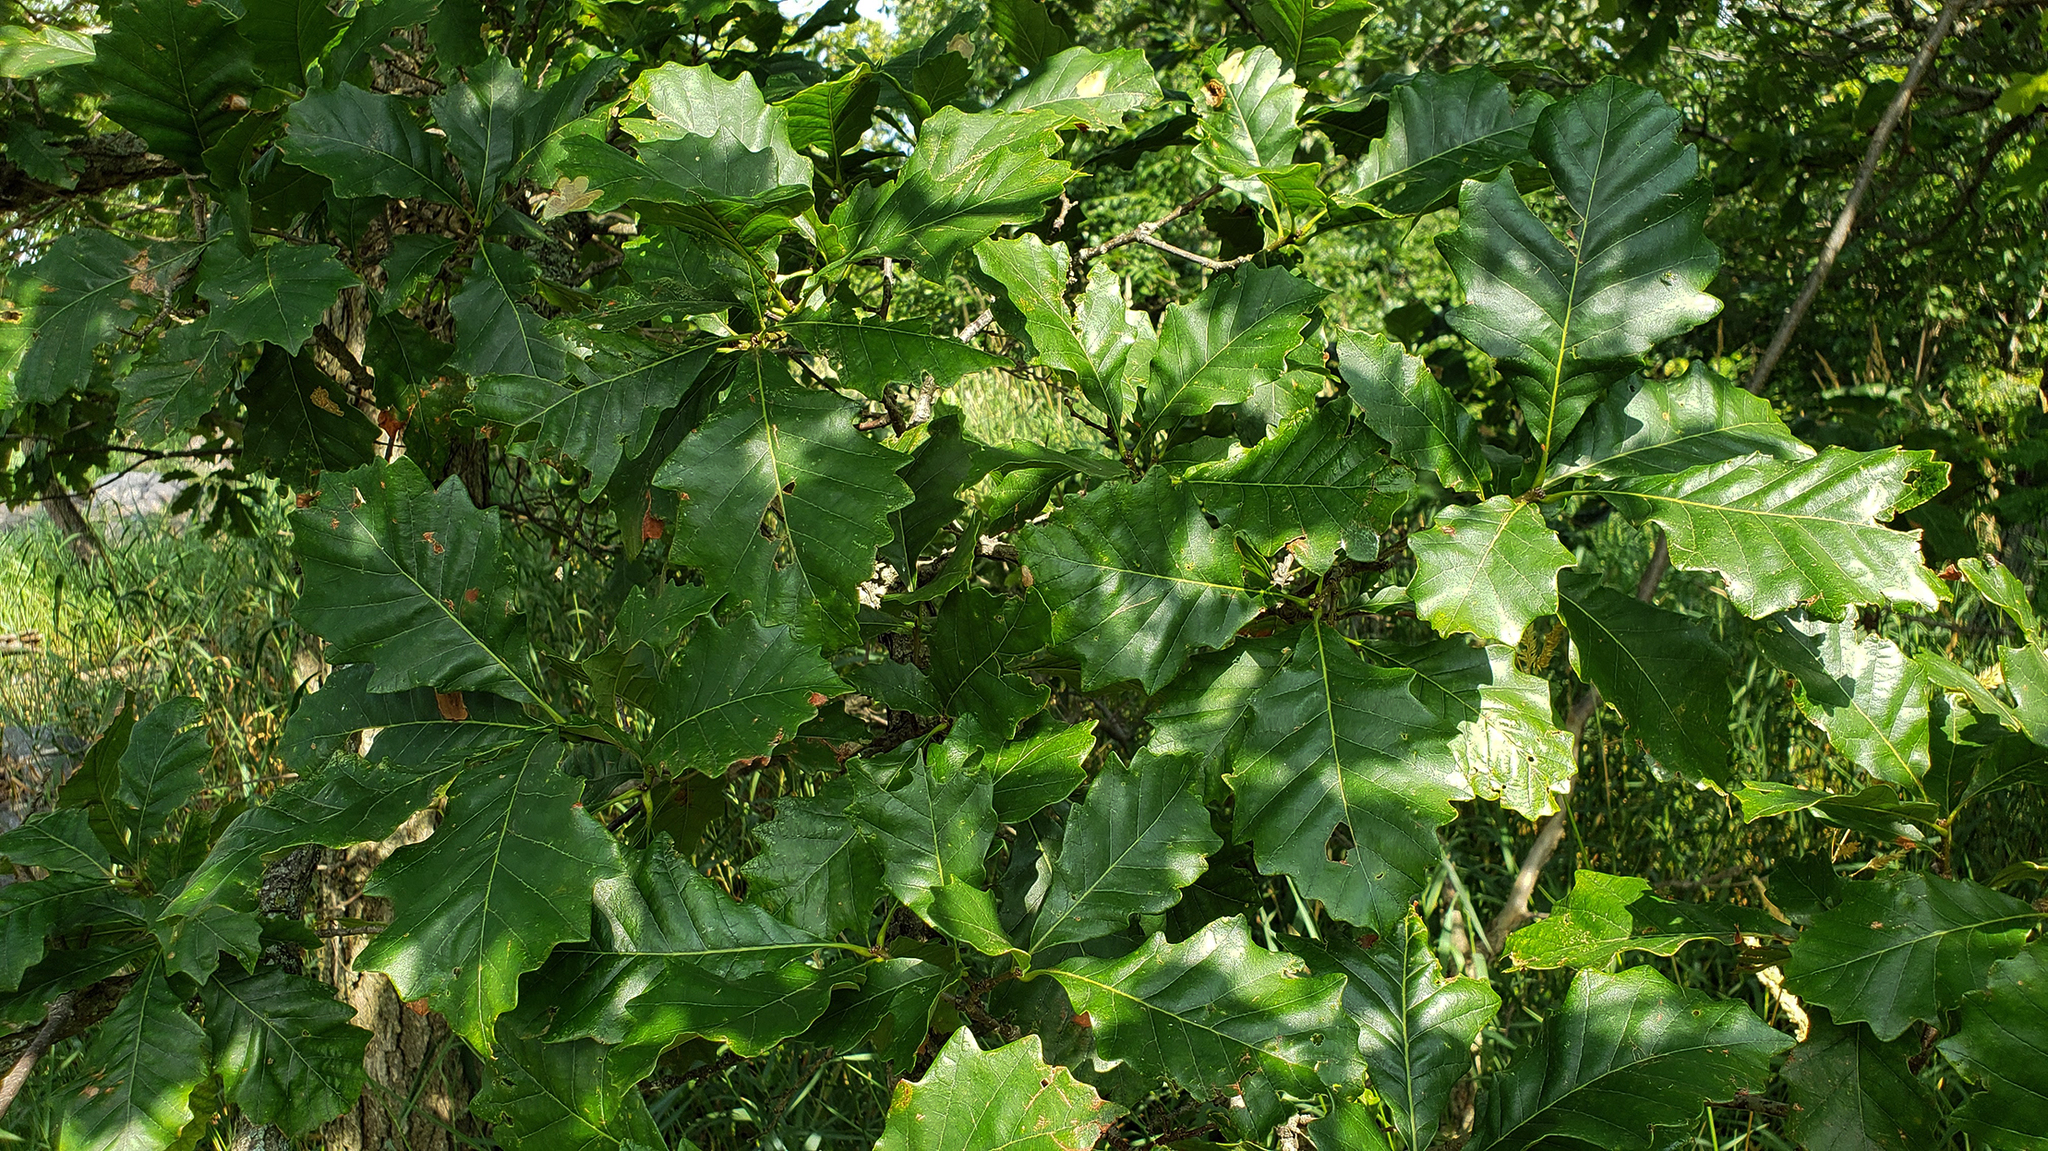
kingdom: Plantae
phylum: Tracheophyta
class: Magnoliopsida
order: Fagales
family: Fagaceae
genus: Quercus
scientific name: Quercus bicolor
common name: Swamp white oak
